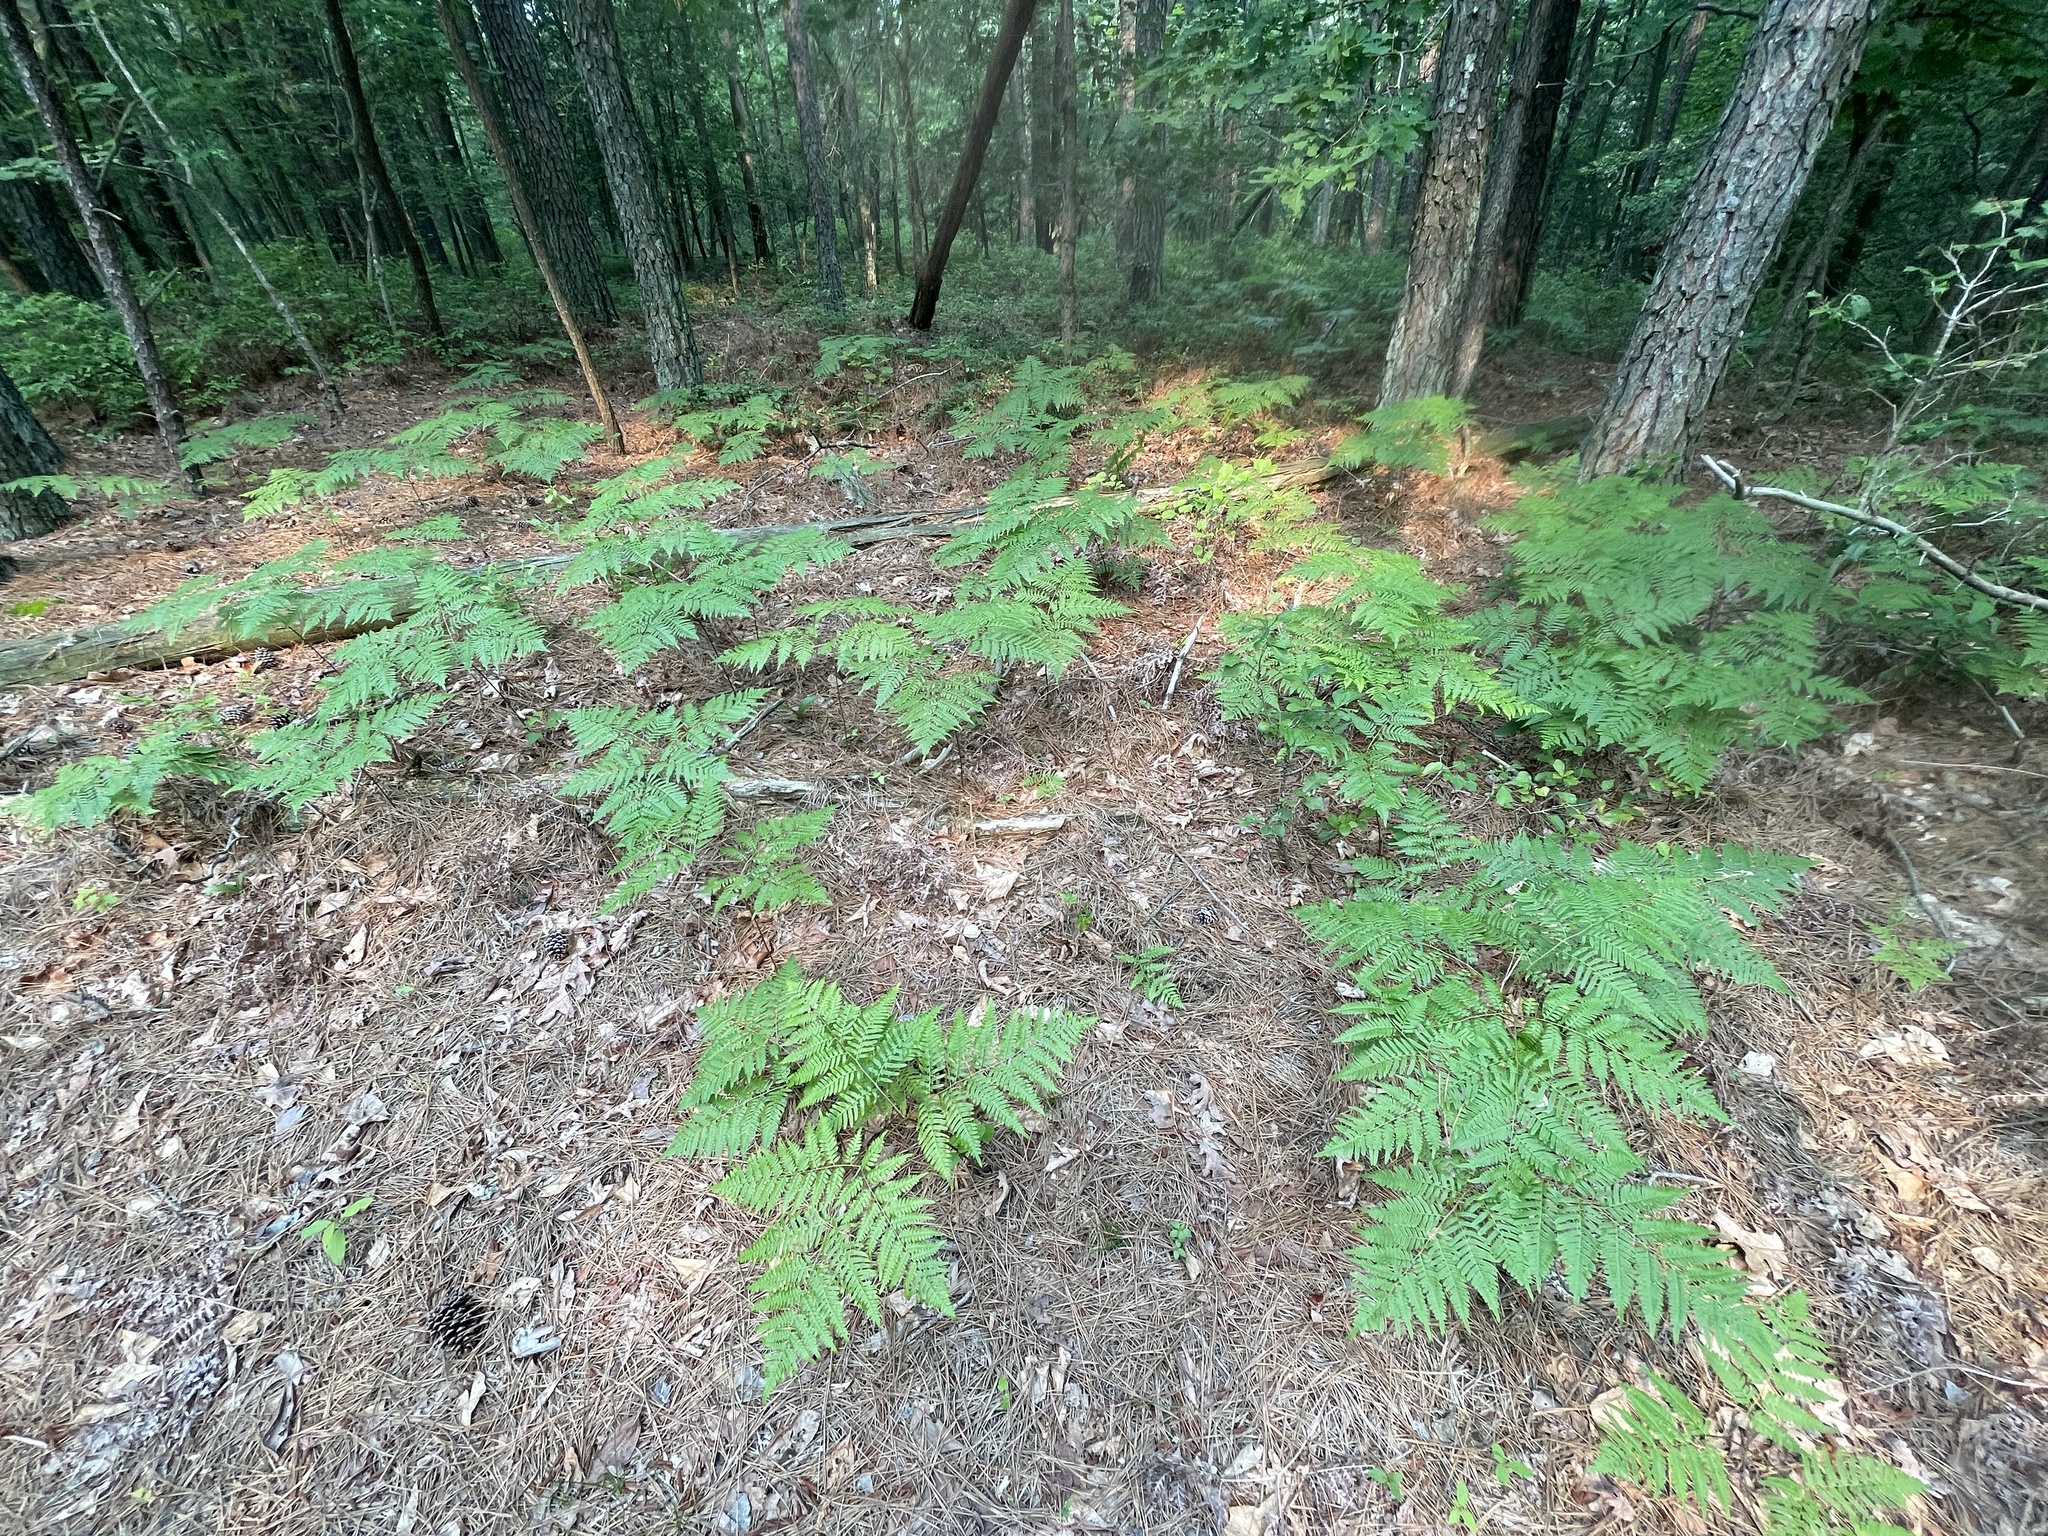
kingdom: Plantae
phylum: Tracheophyta
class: Polypodiopsida
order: Polypodiales
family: Dennstaedtiaceae
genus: Pteridium
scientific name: Pteridium aquilinum
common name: Bracken
